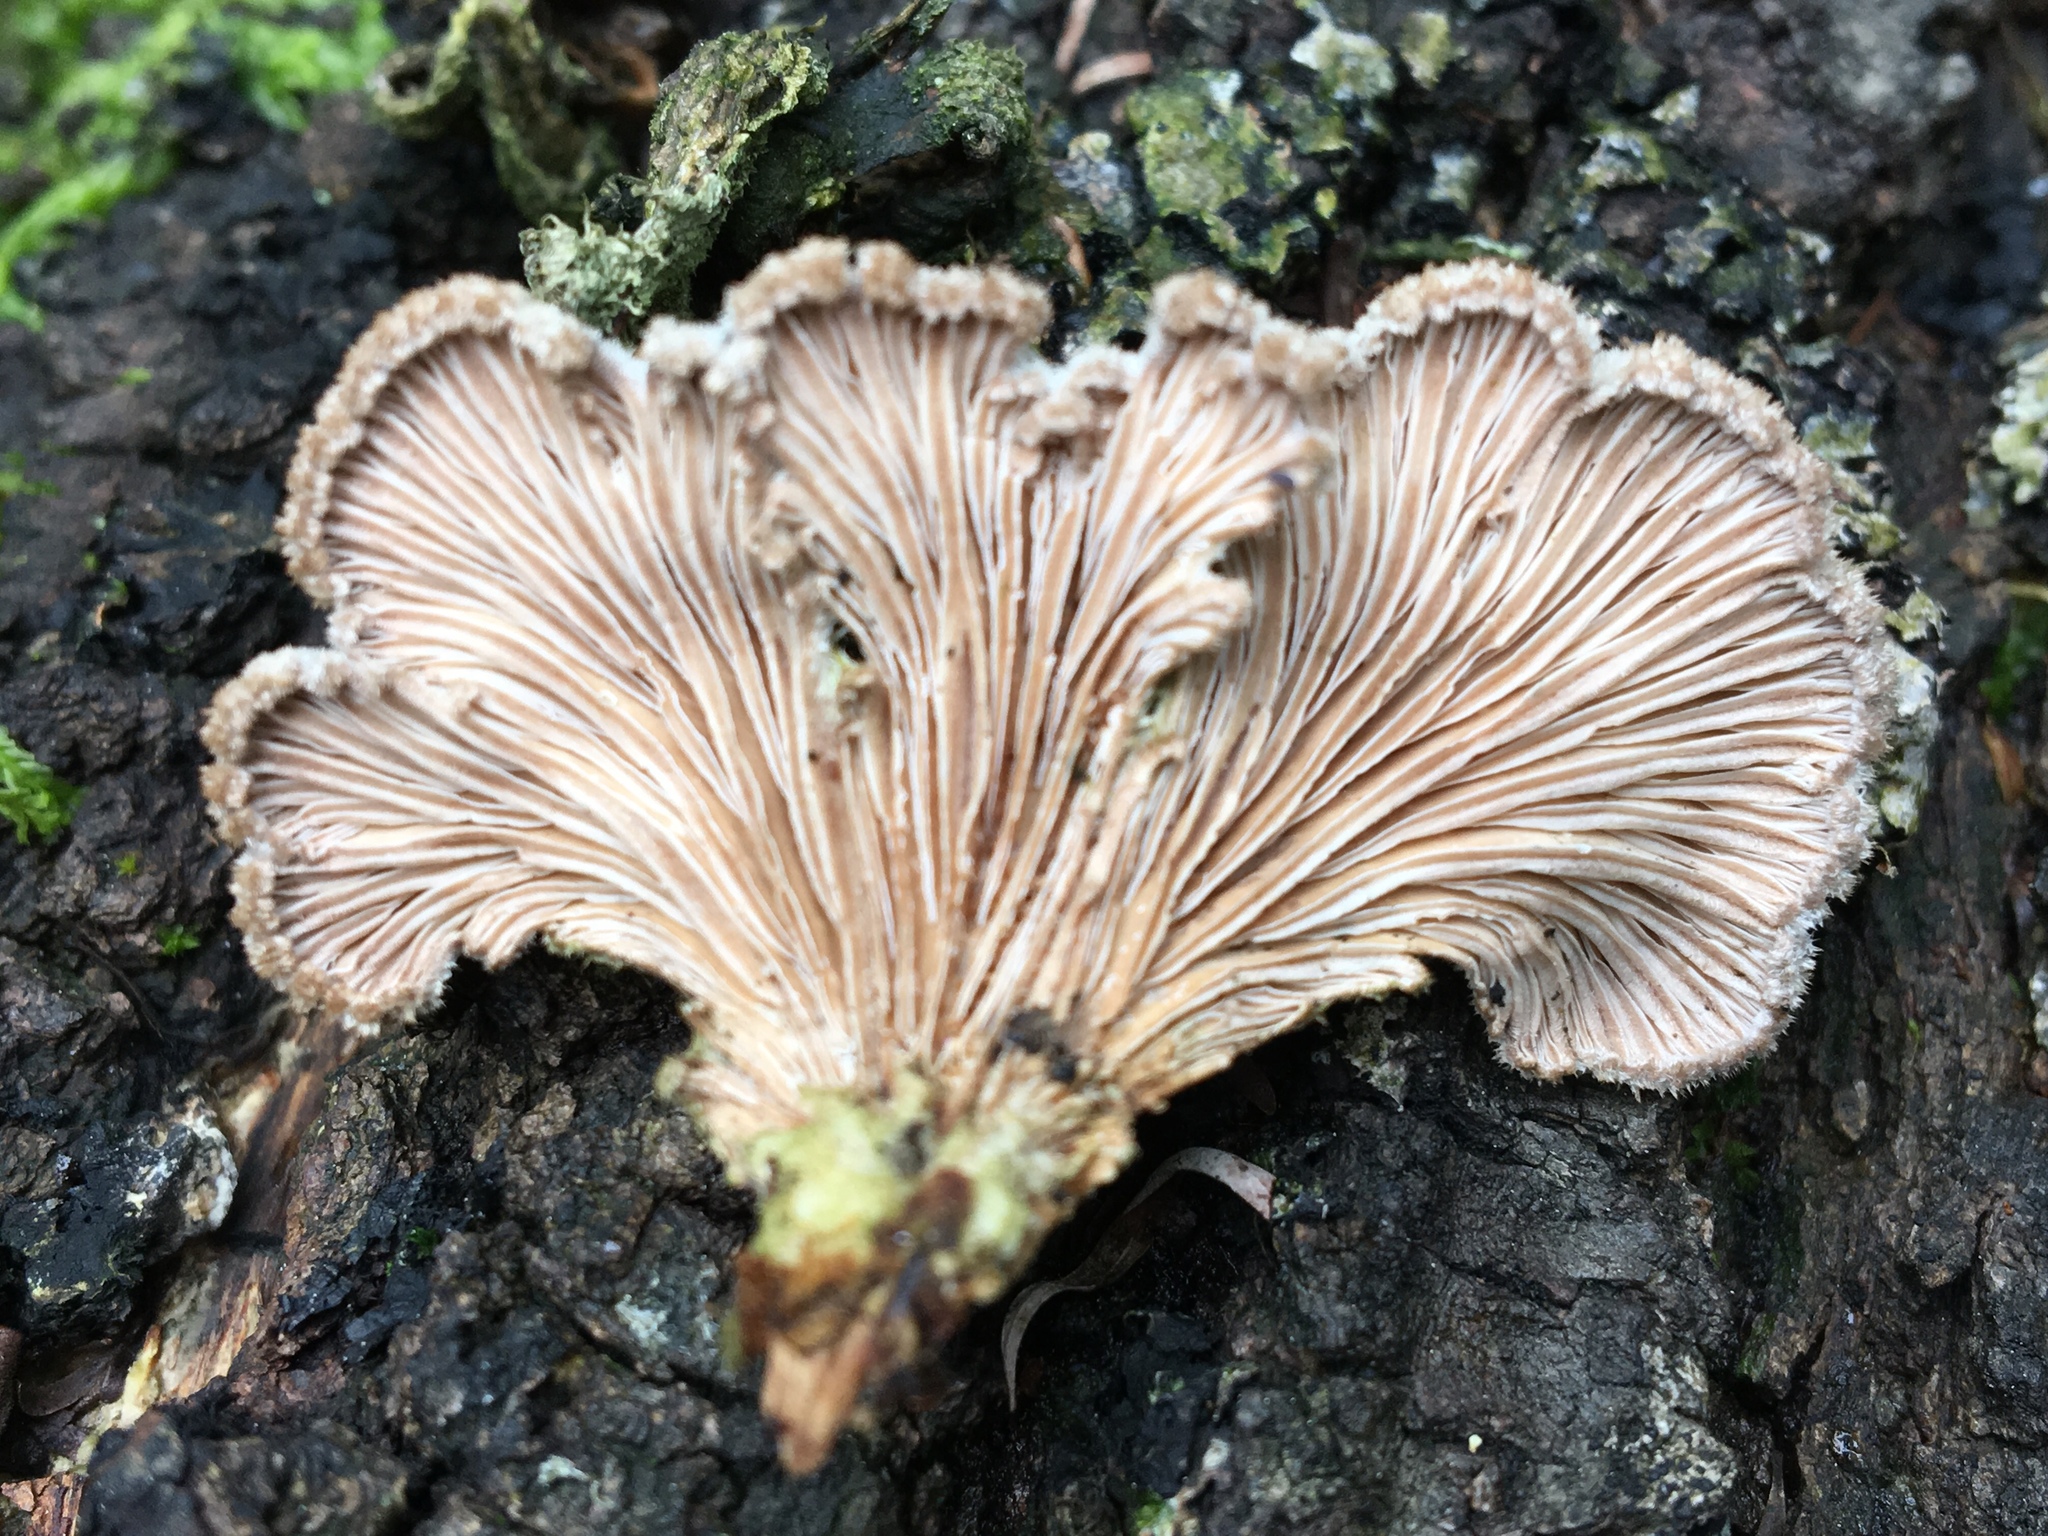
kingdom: Fungi
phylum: Basidiomycota
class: Agaricomycetes
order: Agaricales
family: Schizophyllaceae
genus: Schizophyllum
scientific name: Schizophyllum commune
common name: Common porecrust
